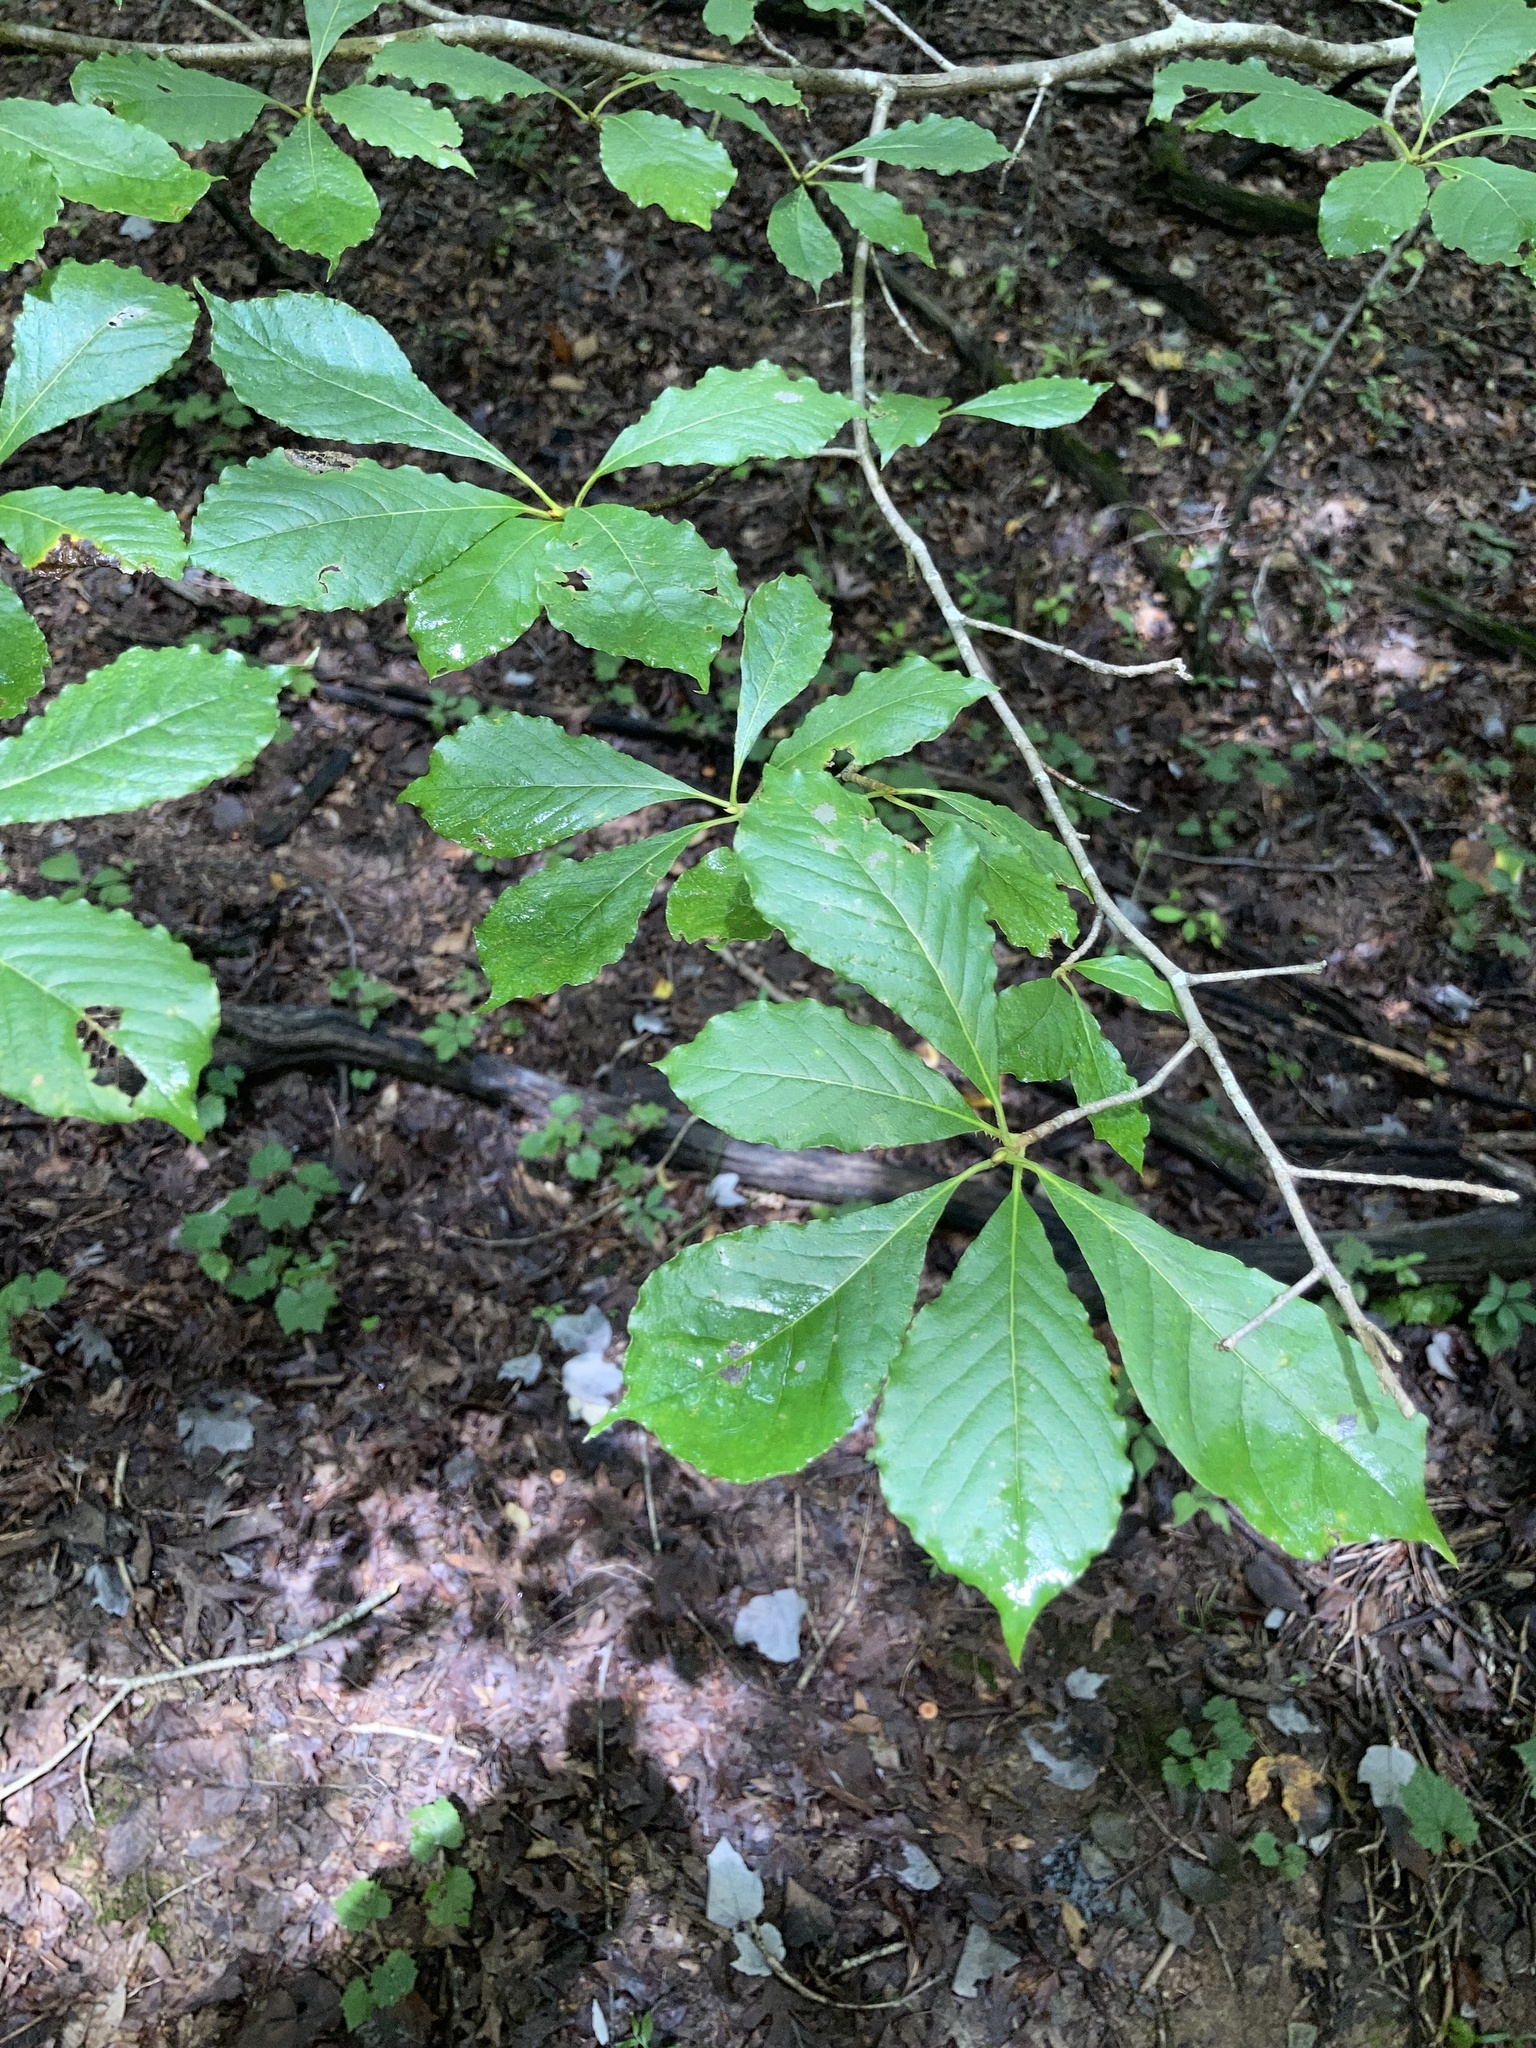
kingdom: Plantae
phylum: Tracheophyta
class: Magnoliopsida
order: Cornales
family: Nyssaceae
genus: Nyssa
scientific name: Nyssa sylvatica
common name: Black tupelo
